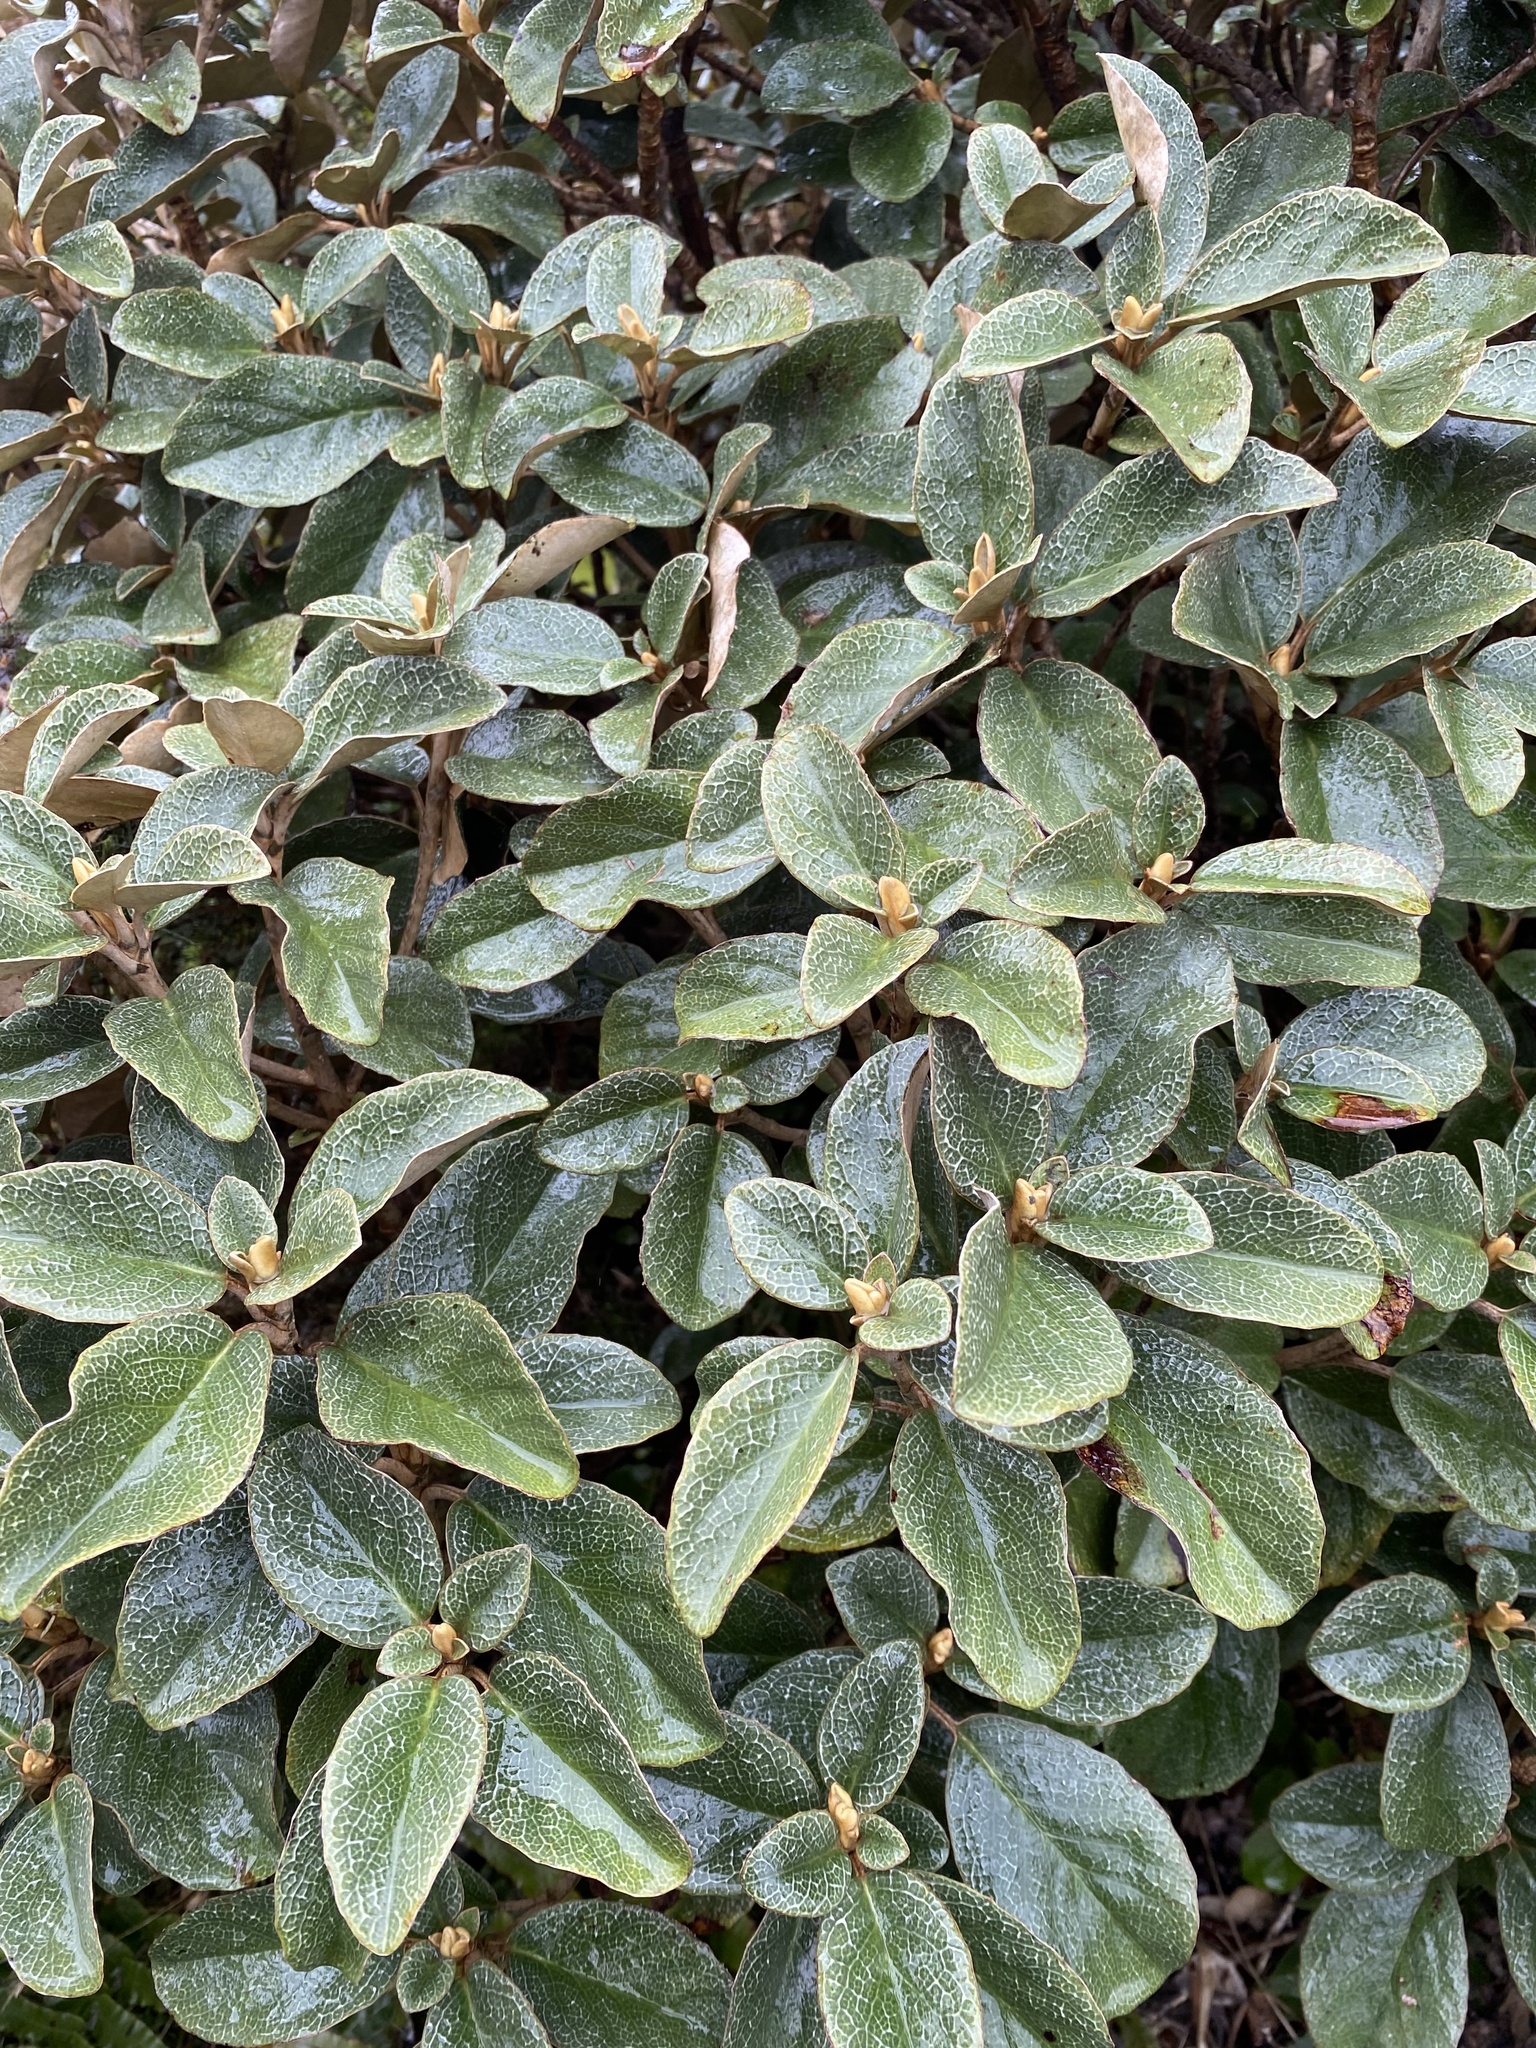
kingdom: Plantae
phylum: Tracheophyta
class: Magnoliopsida
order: Asterales
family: Asteraceae
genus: Brachyglottis
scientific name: Brachyglottis elaeagnifolia
